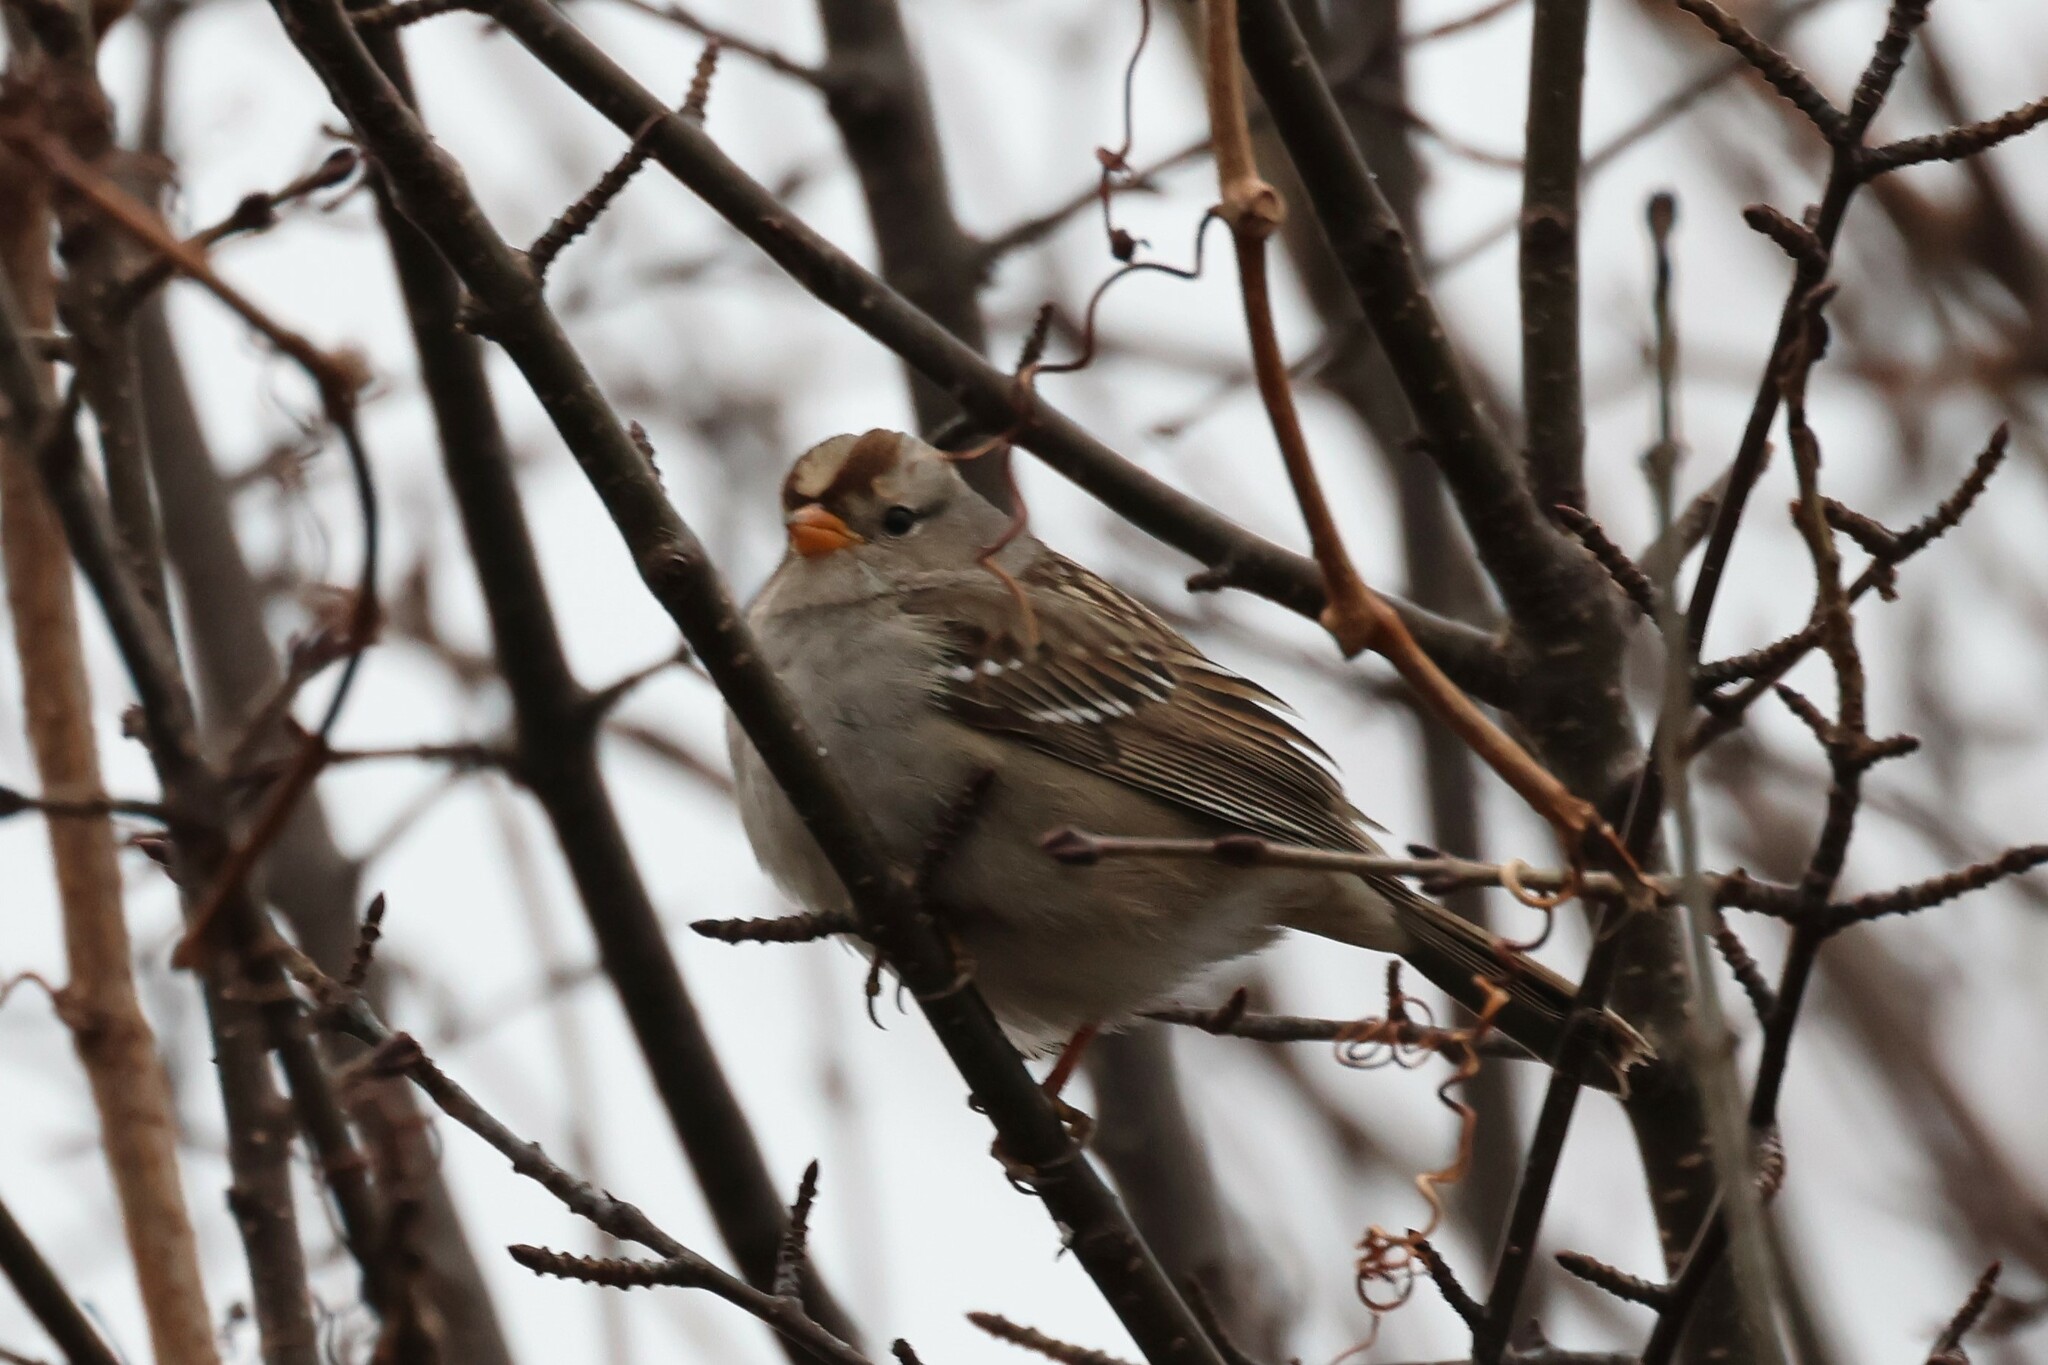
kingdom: Animalia
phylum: Chordata
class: Aves
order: Passeriformes
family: Passerellidae
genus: Zonotrichia
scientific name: Zonotrichia leucophrys
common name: White-crowned sparrow
